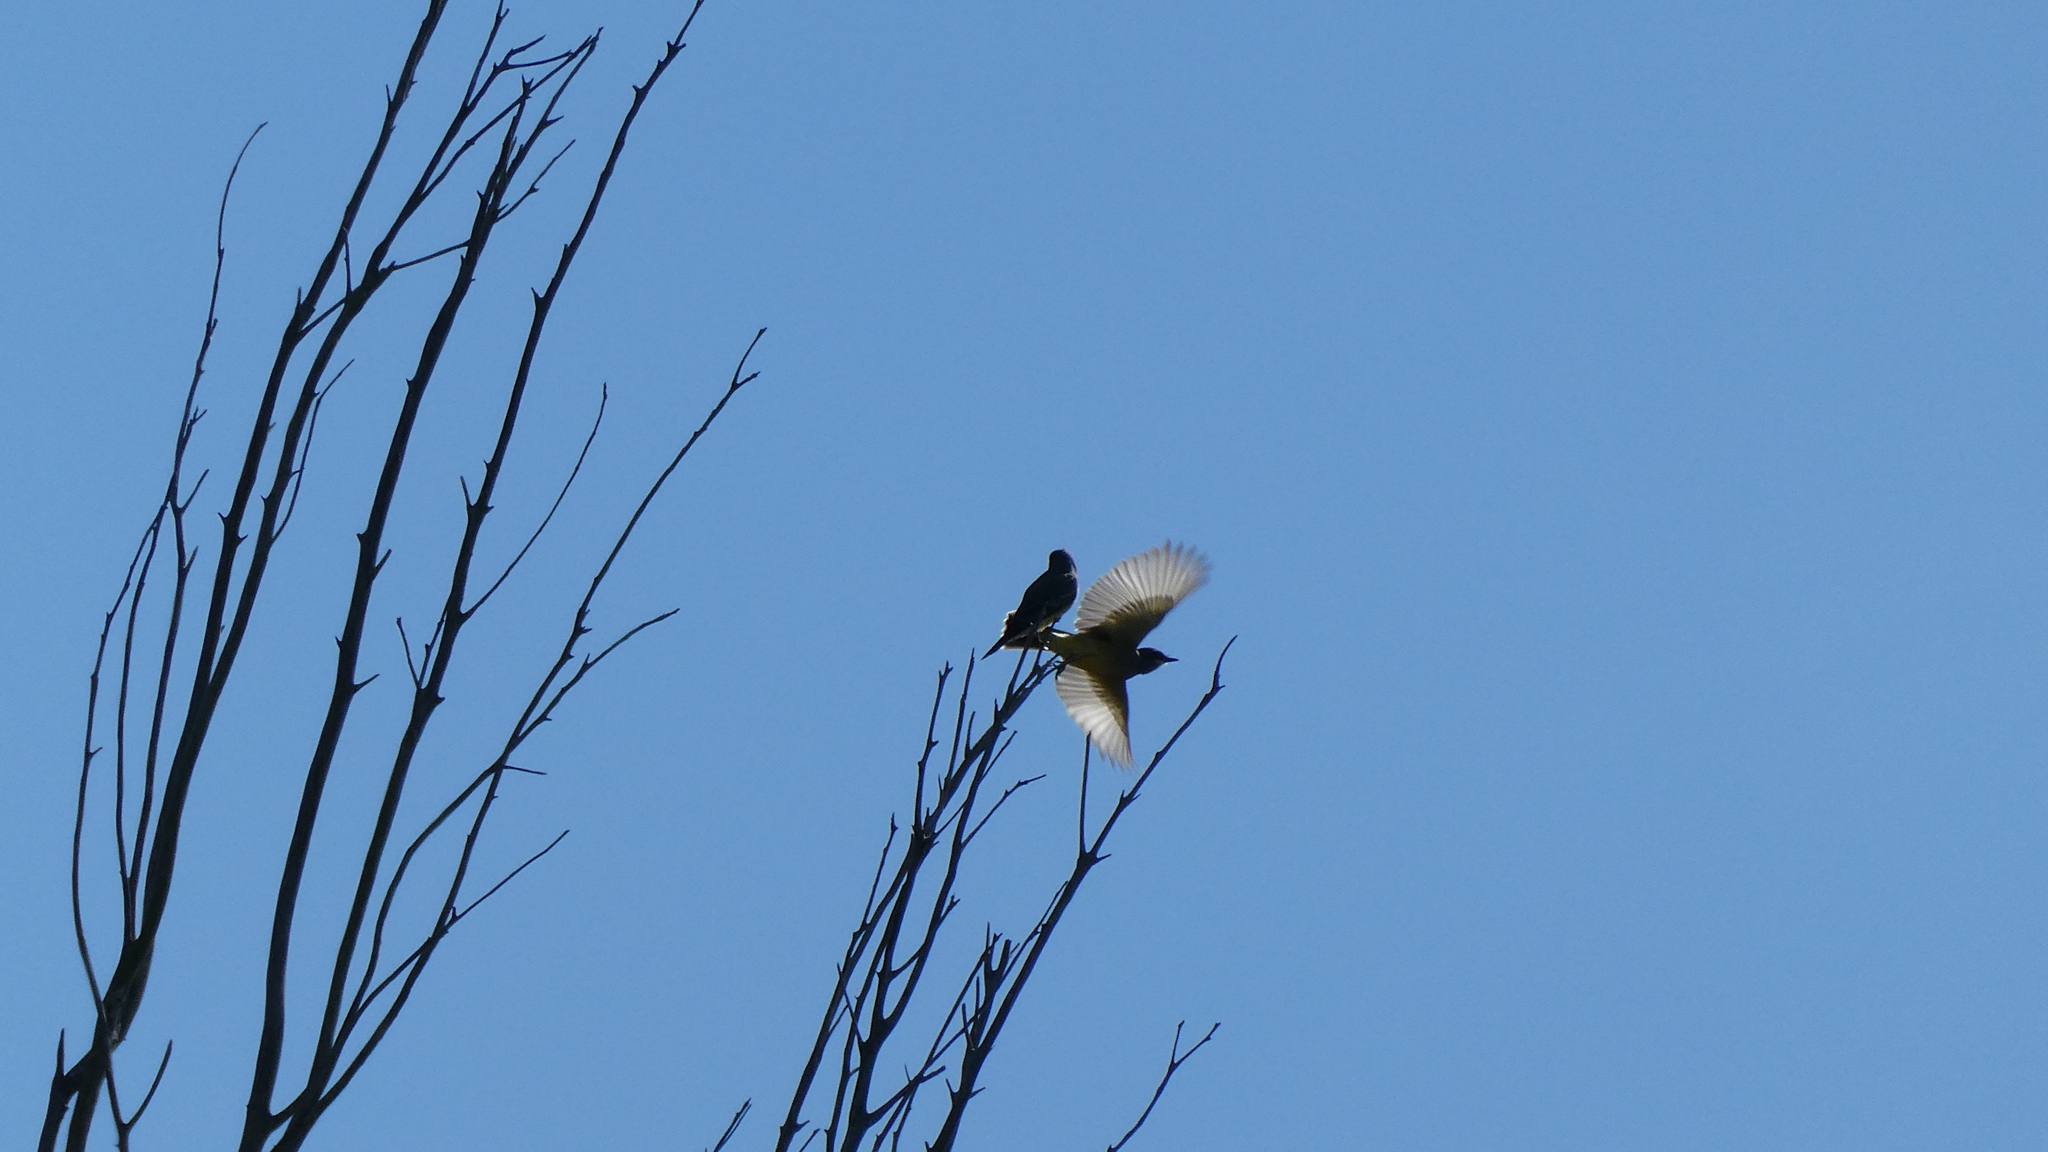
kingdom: Animalia
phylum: Chordata
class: Aves
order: Passeriformes
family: Tyrannidae
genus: Tyrannus
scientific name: Tyrannus vociferans
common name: Cassin's kingbird
